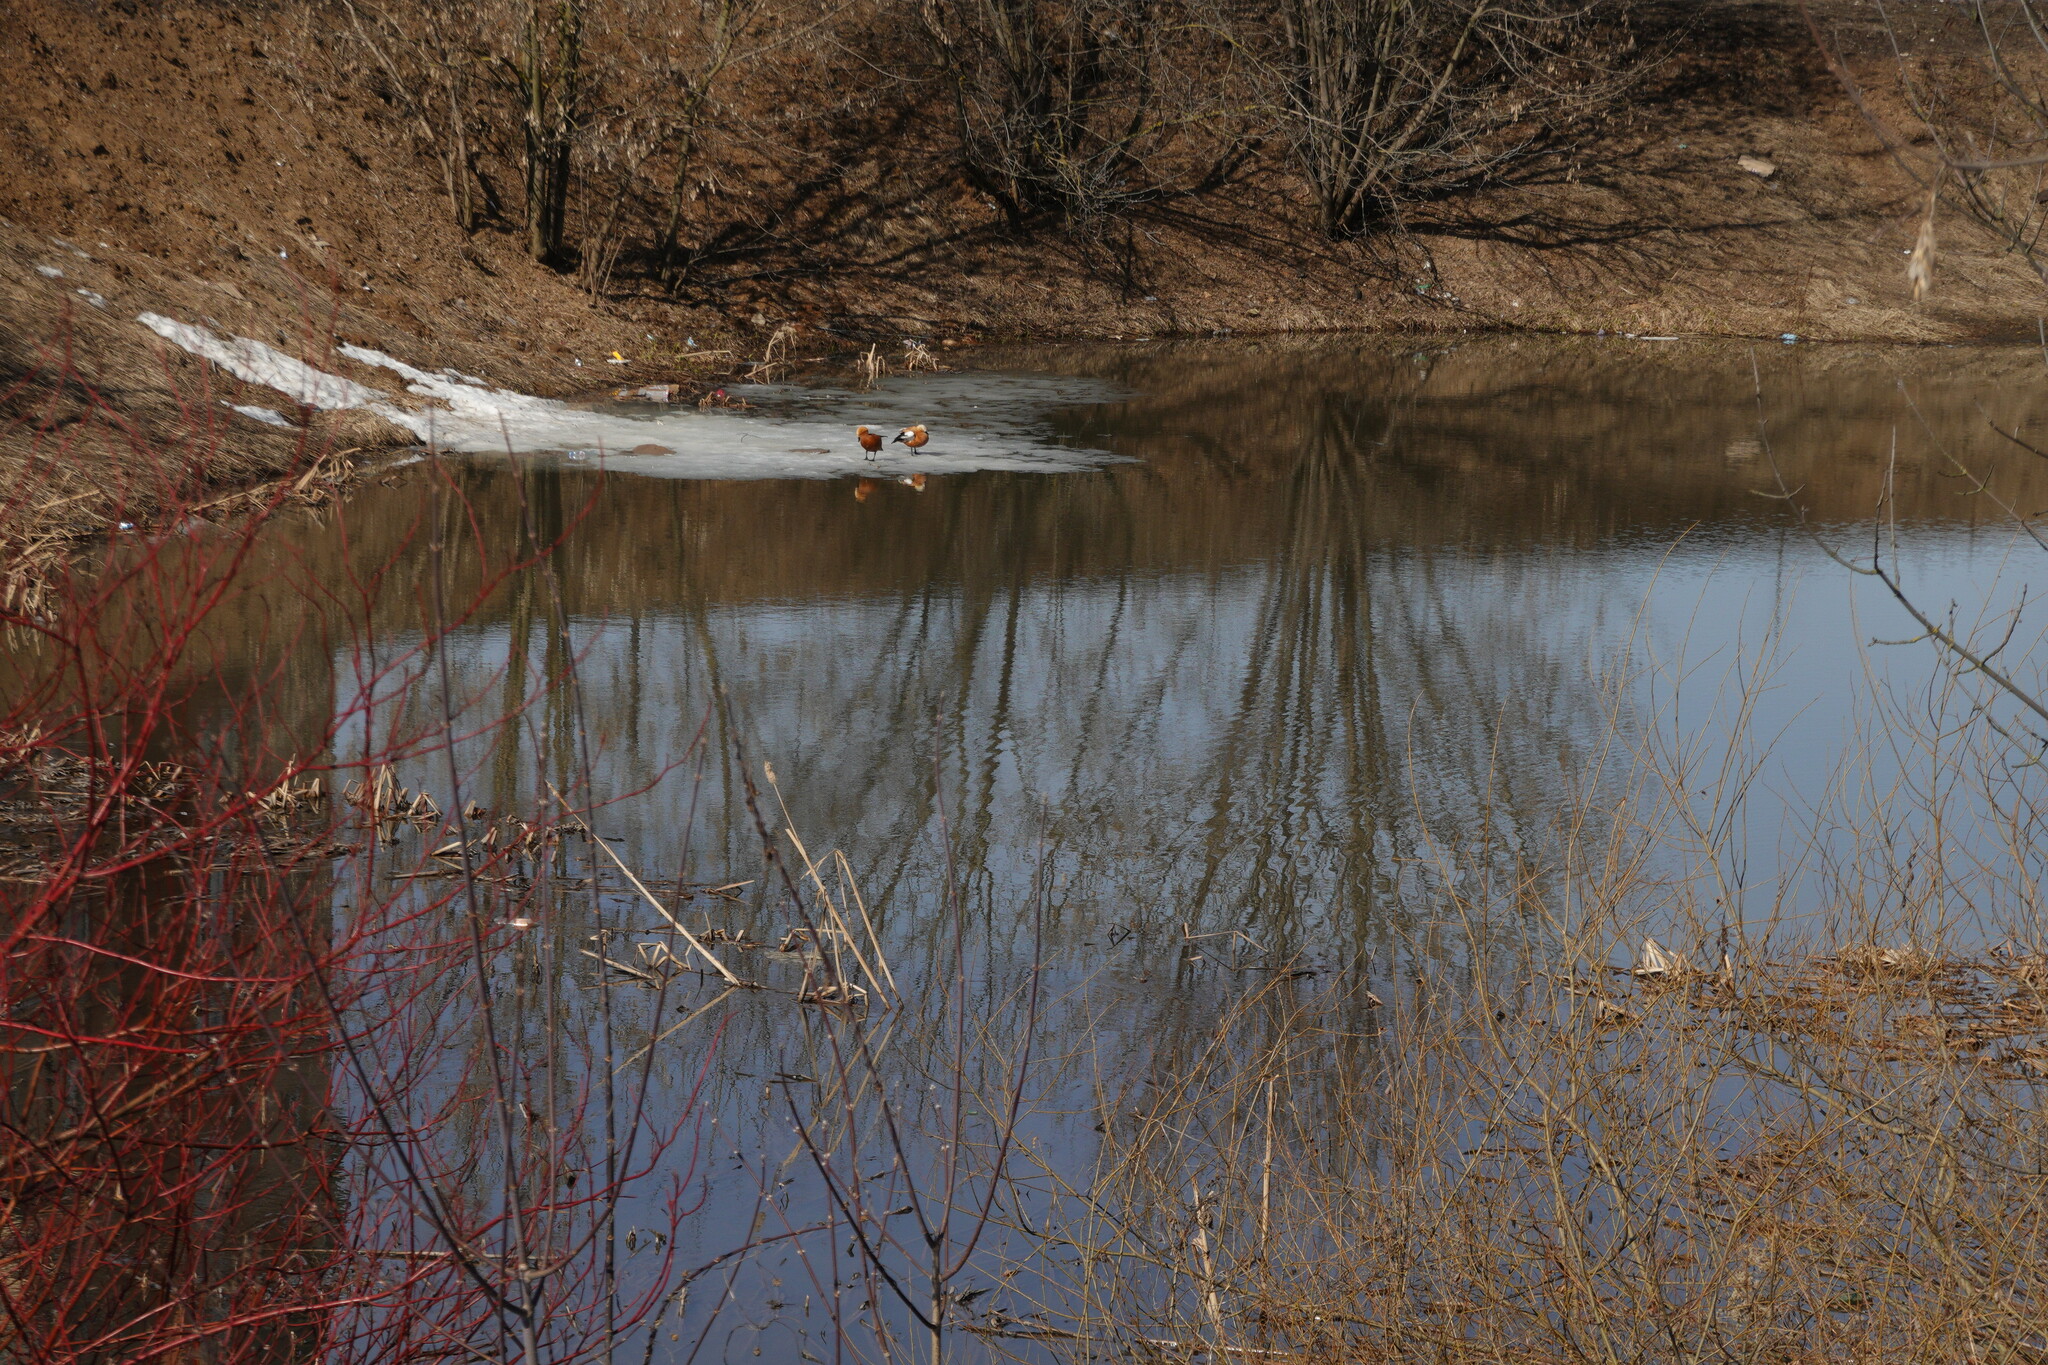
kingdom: Animalia
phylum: Chordata
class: Aves
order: Anseriformes
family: Anatidae
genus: Tadorna
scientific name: Tadorna ferruginea
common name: Ruddy shelduck
